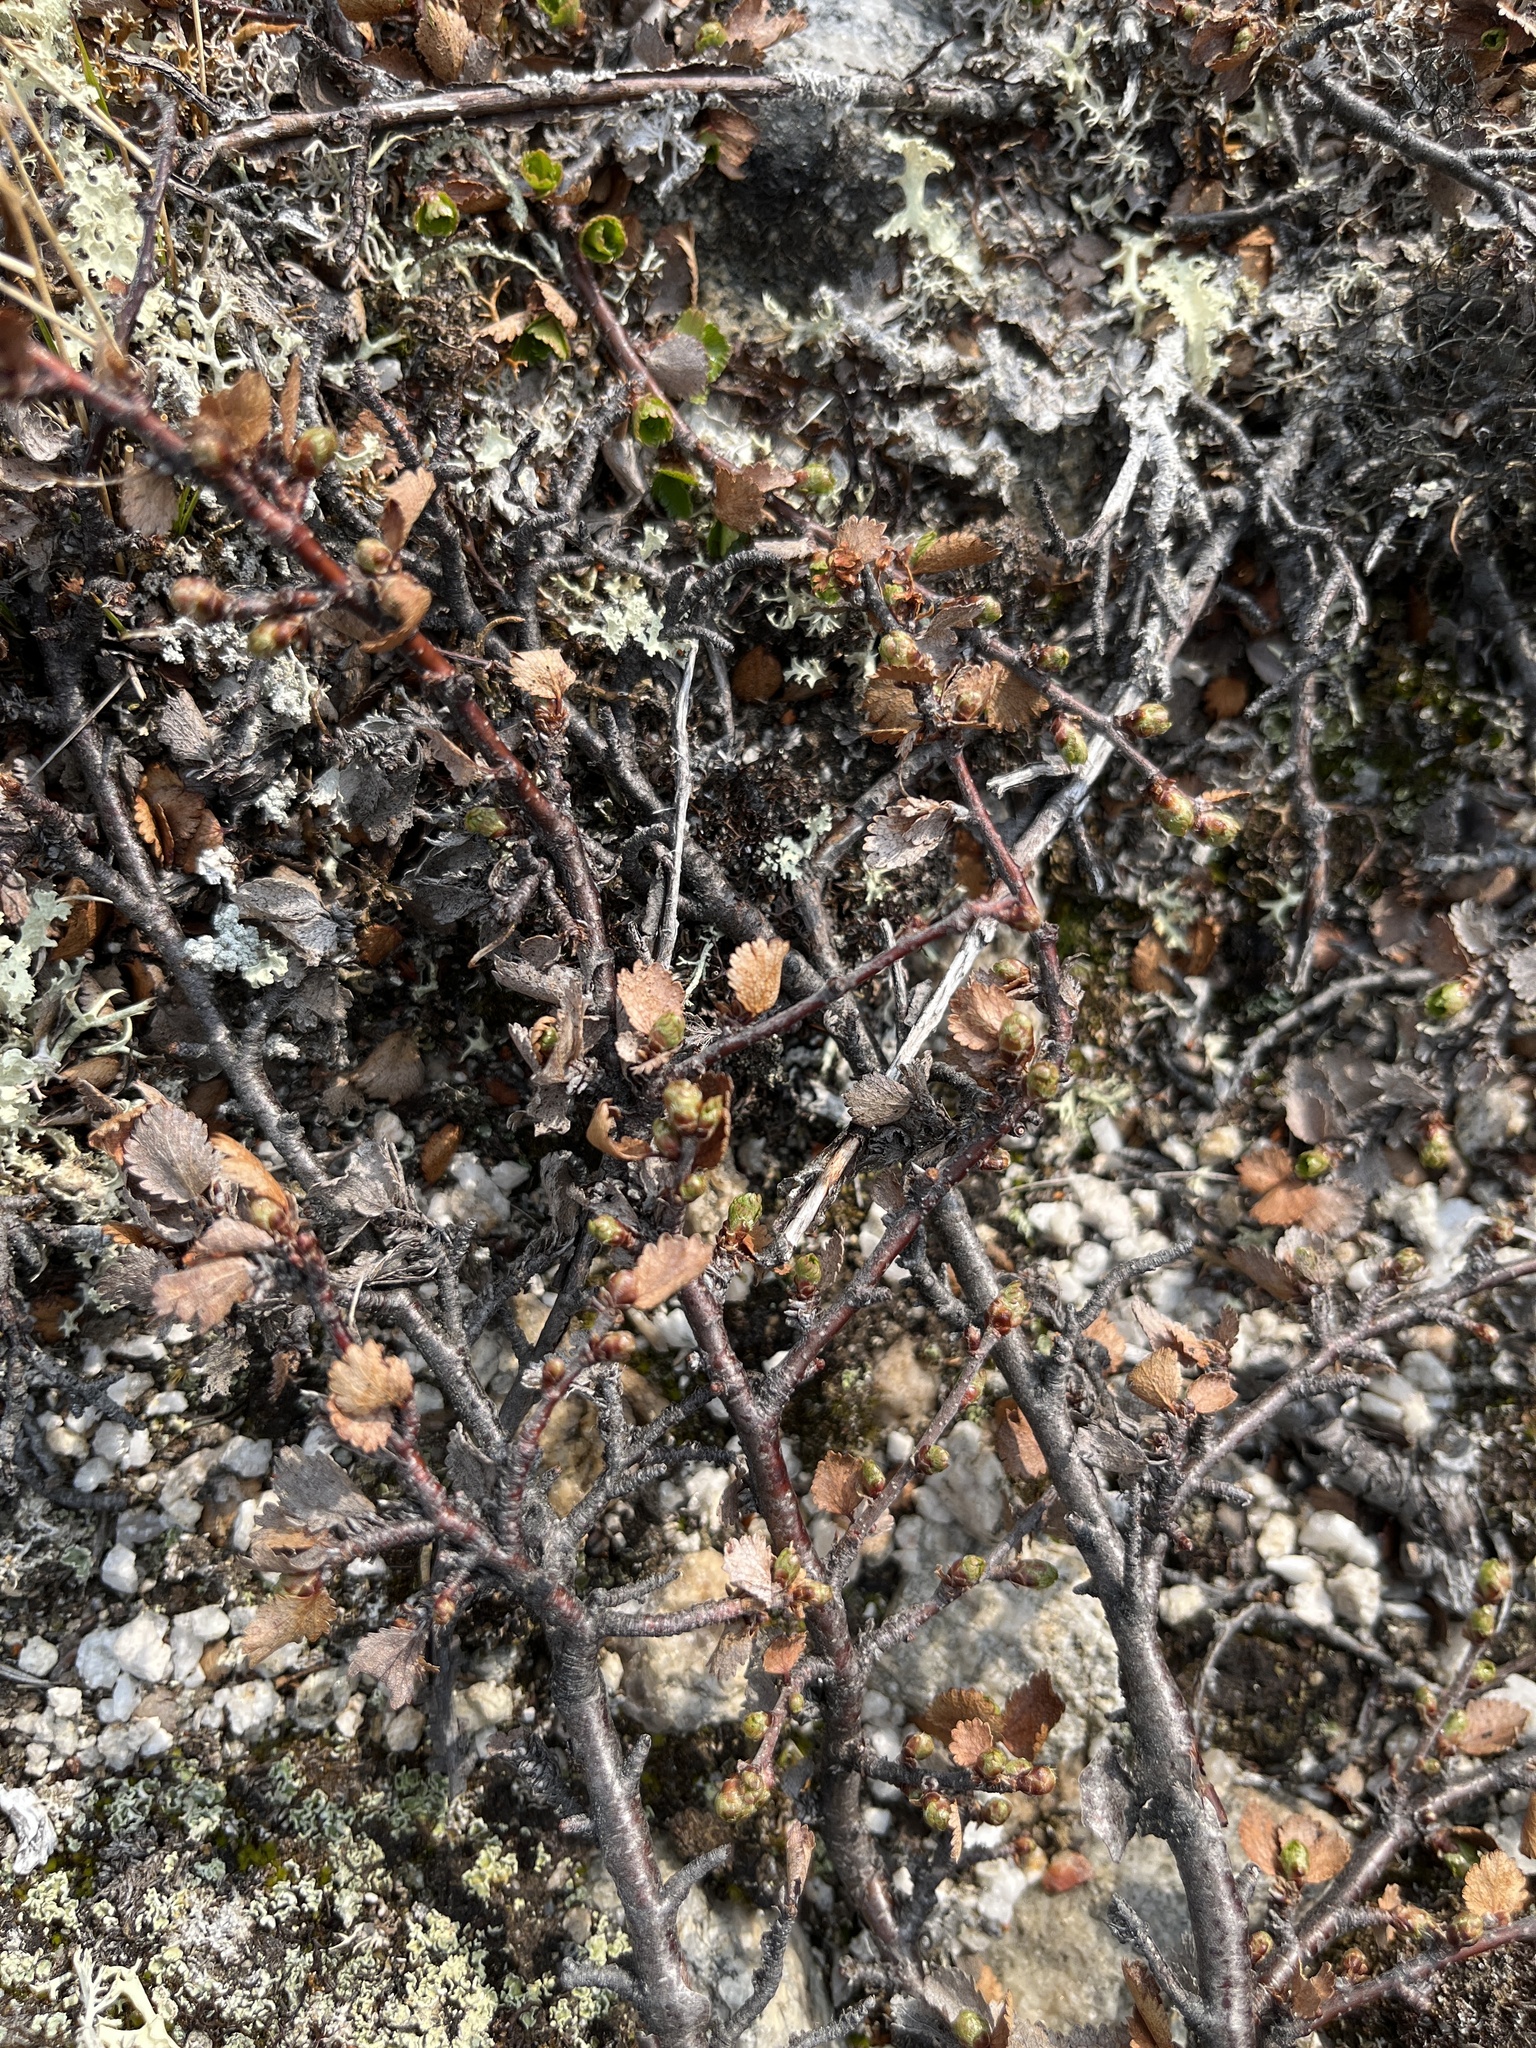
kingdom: Plantae
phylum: Tracheophyta
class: Magnoliopsida
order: Fagales
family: Betulaceae
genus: Betula
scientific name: Betula nana
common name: Arctic dwarf birch
